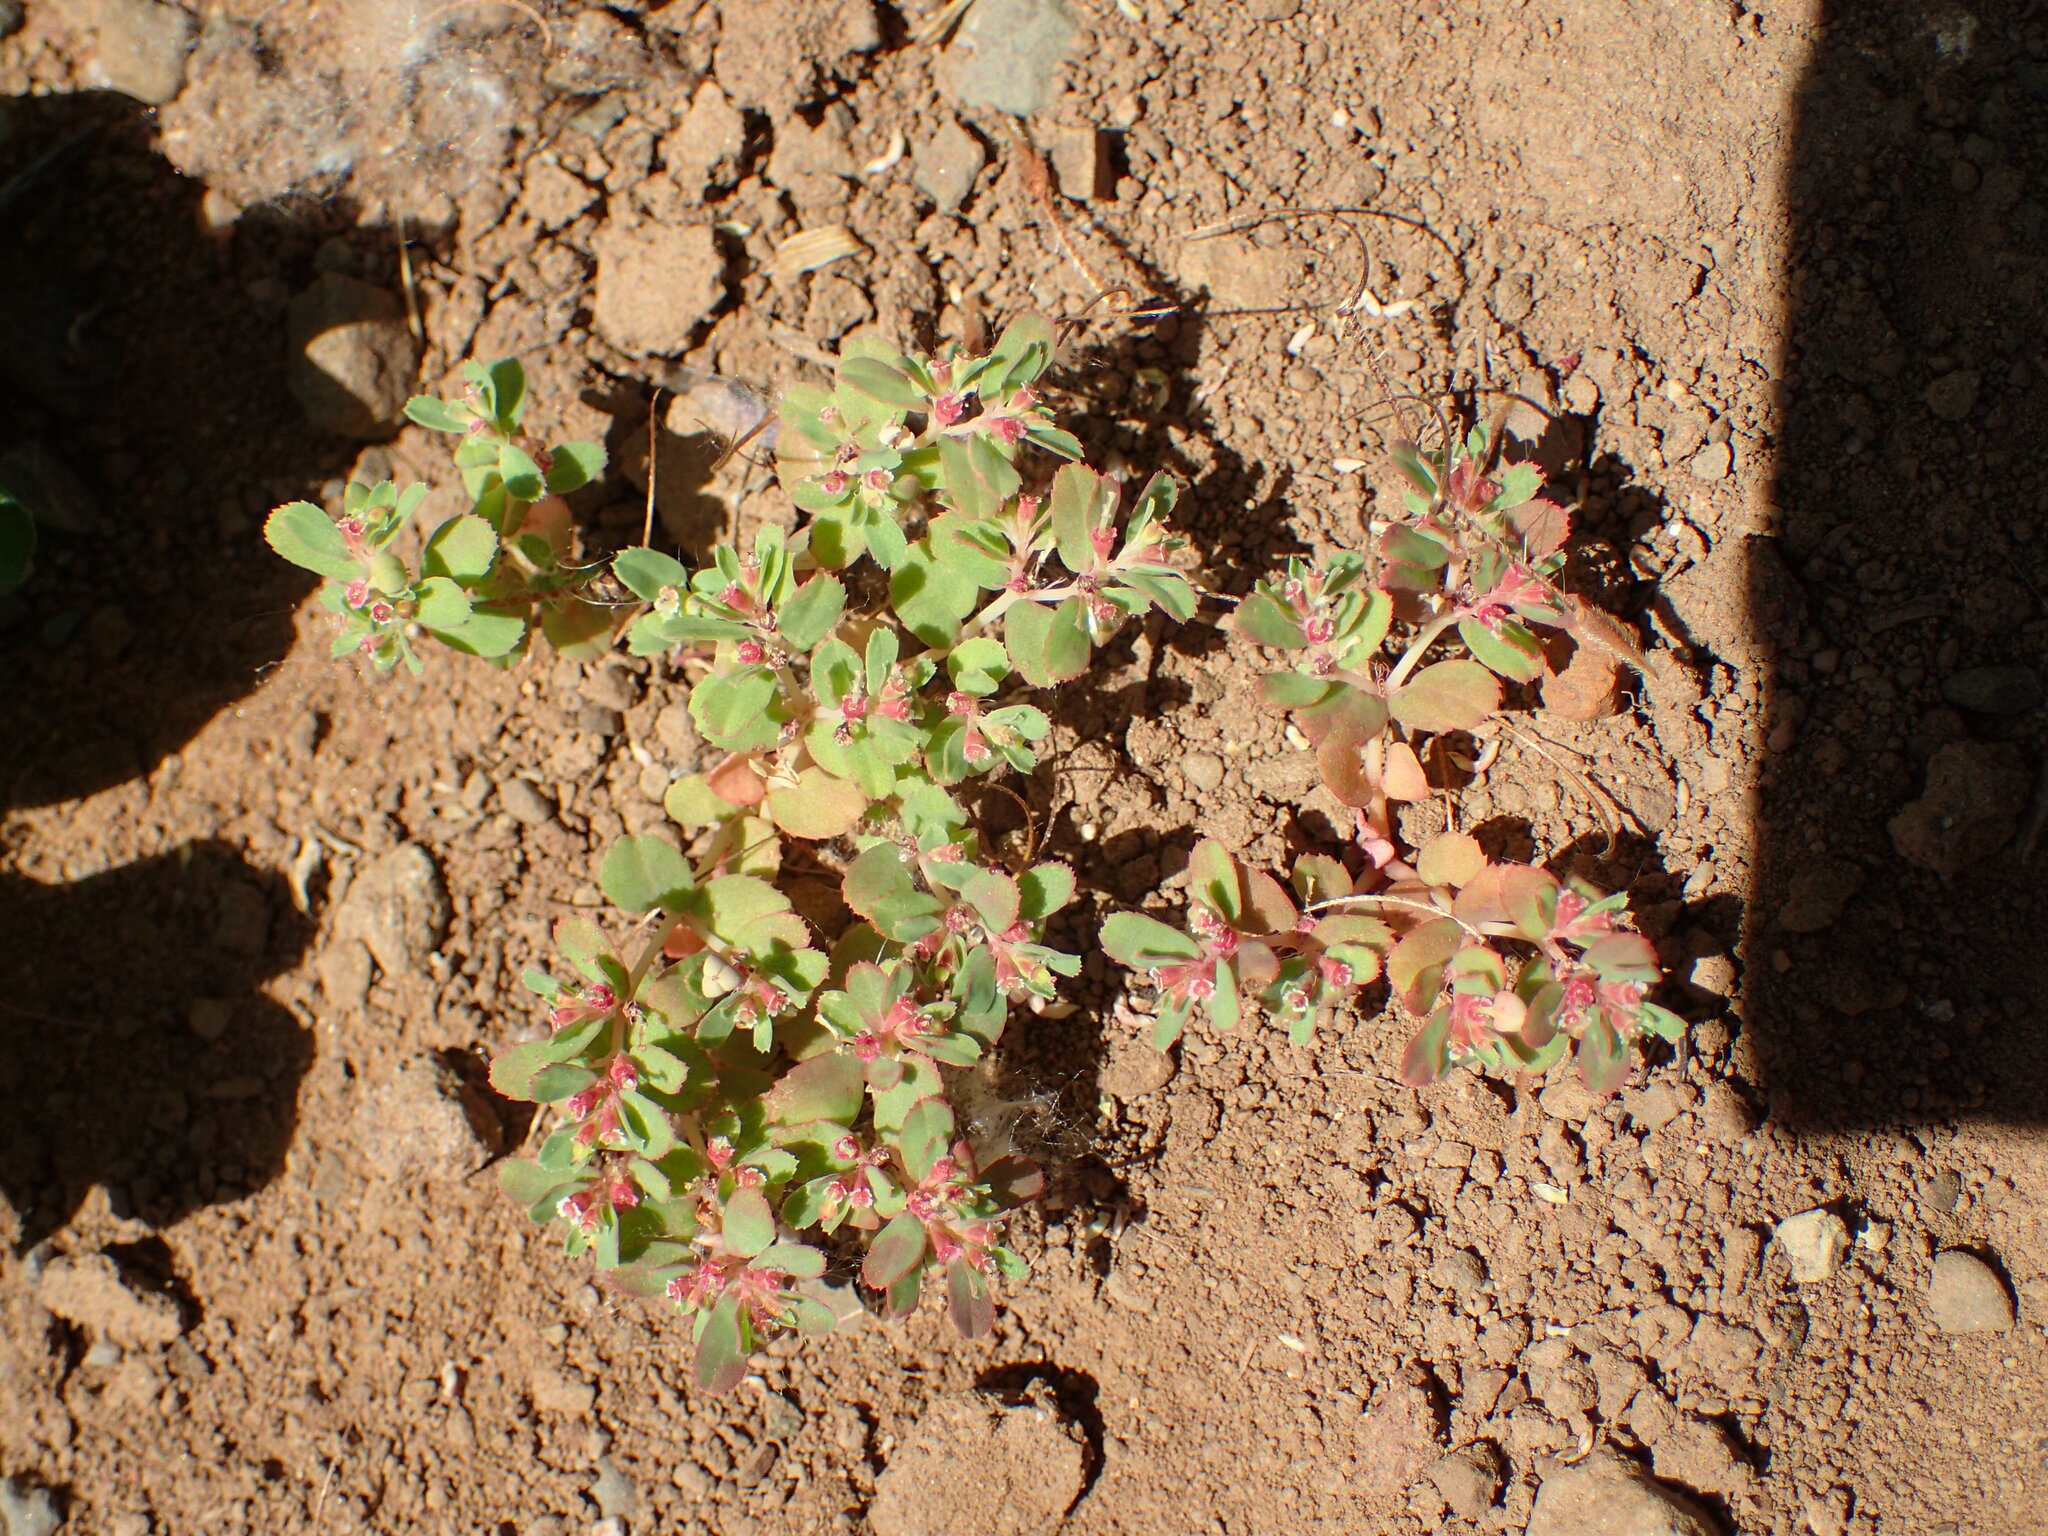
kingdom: Plantae
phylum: Tracheophyta
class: Magnoliopsida
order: Malpighiales
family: Euphorbiaceae
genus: Euphorbia
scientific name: Euphorbia serpillifolia
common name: Thyme-leaf spurge
